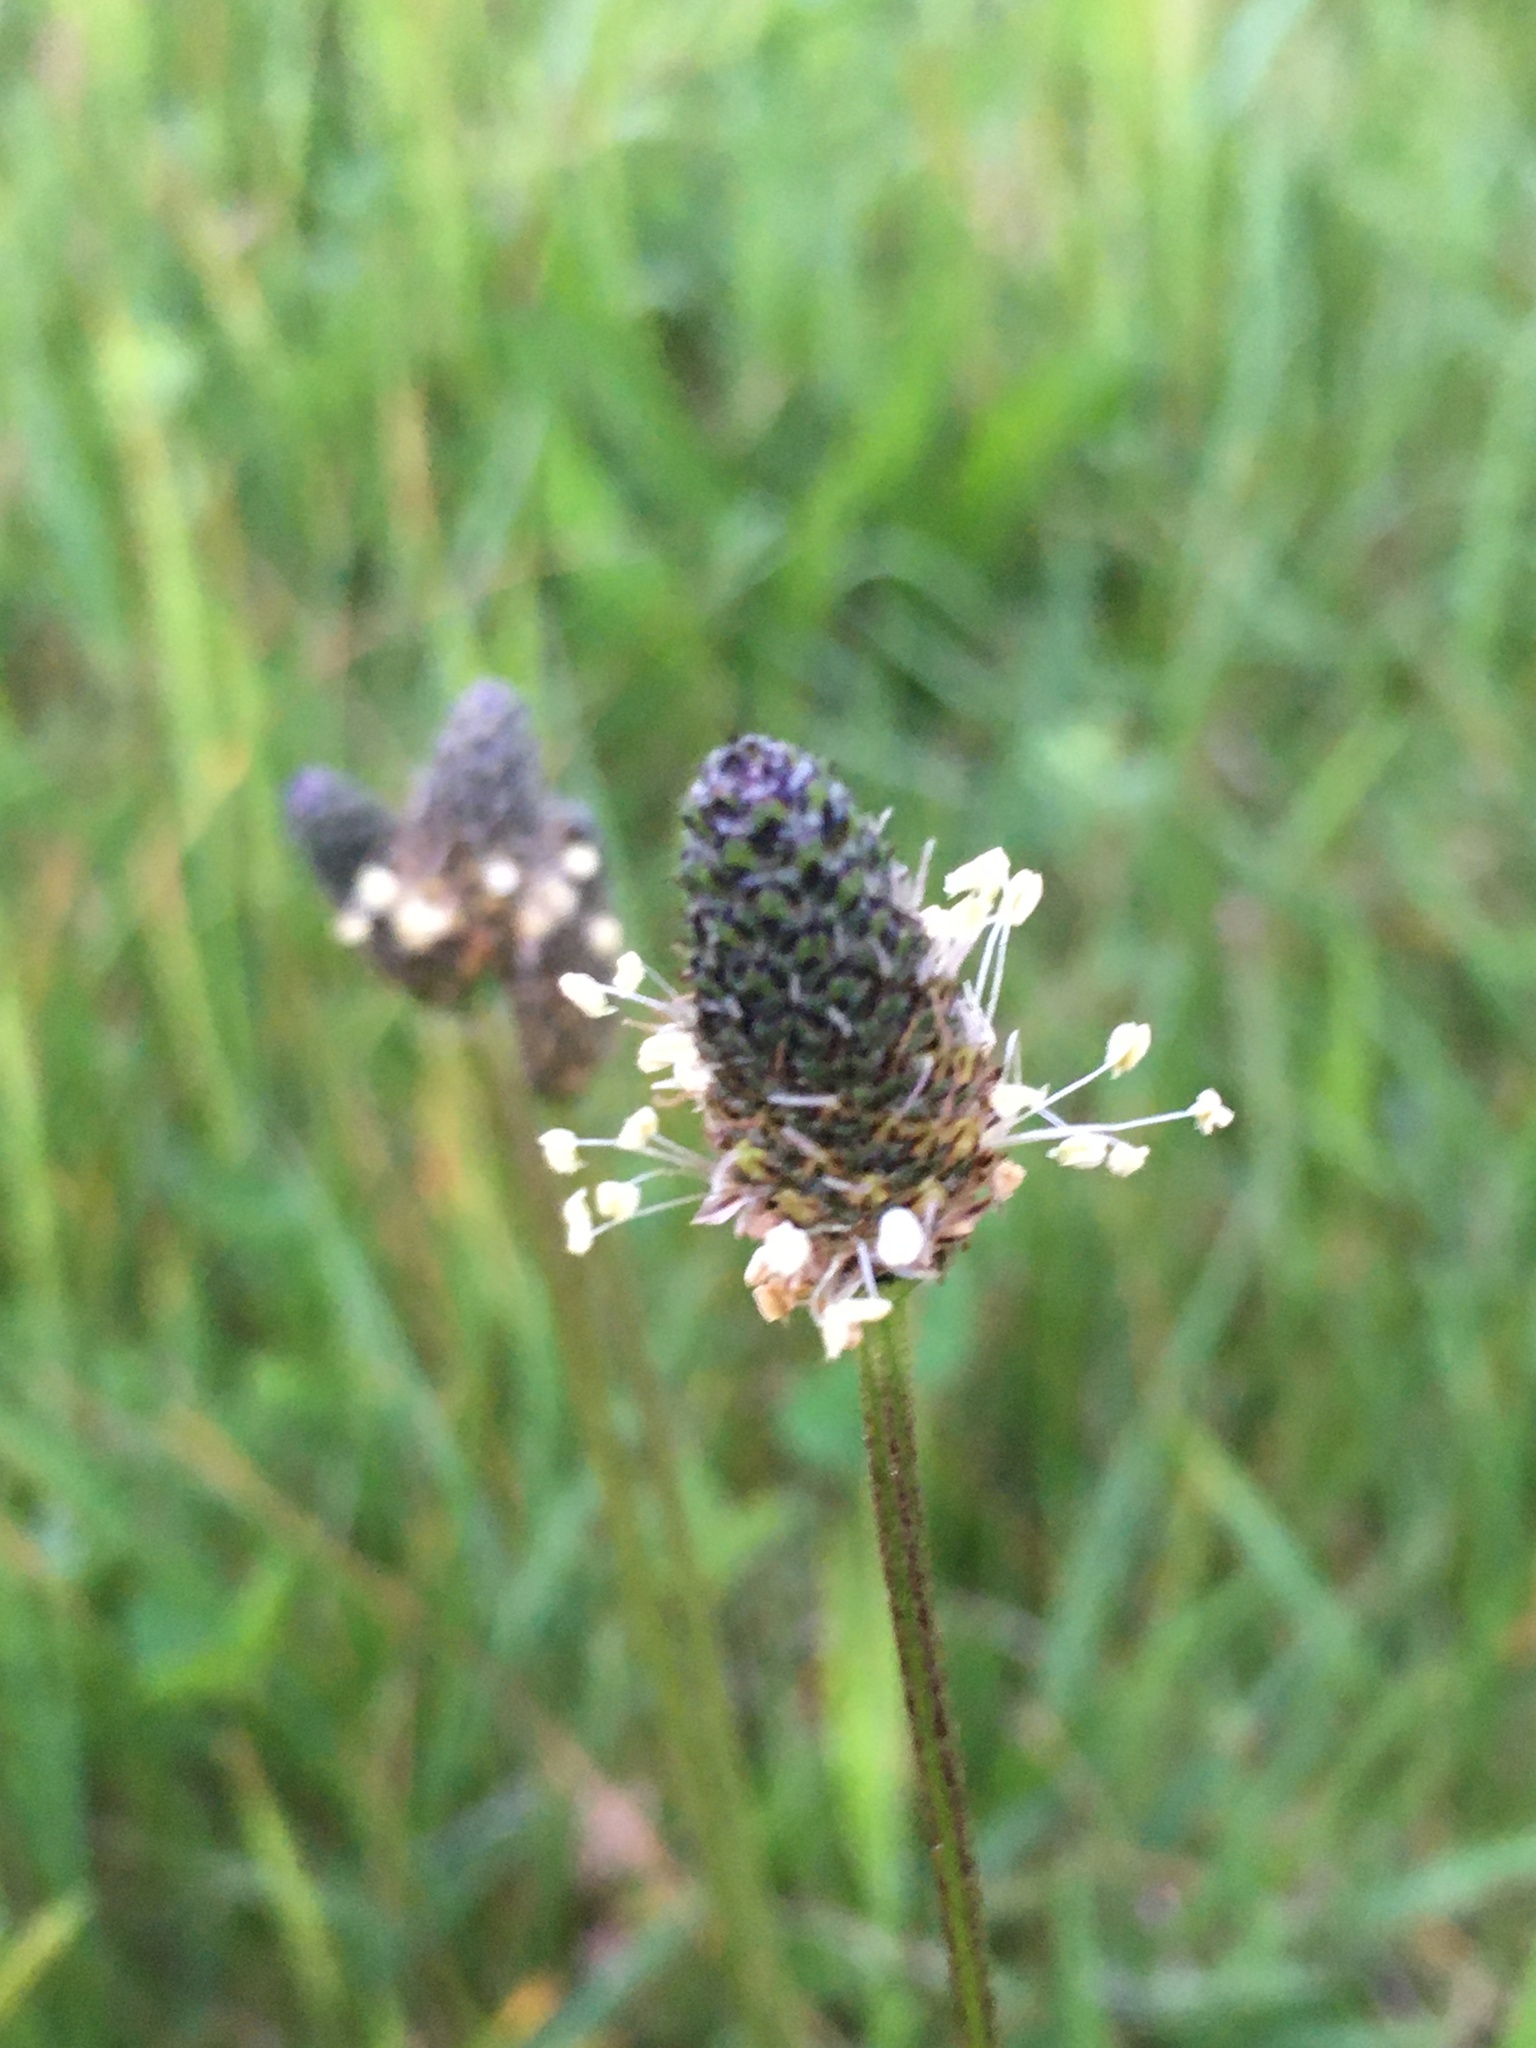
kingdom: Plantae
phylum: Tracheophyta
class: Magnoliopsida
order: Lamiales
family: Plantaginaceae
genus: Plantago
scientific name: Plantago lanceolata
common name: Ribwort plantain
